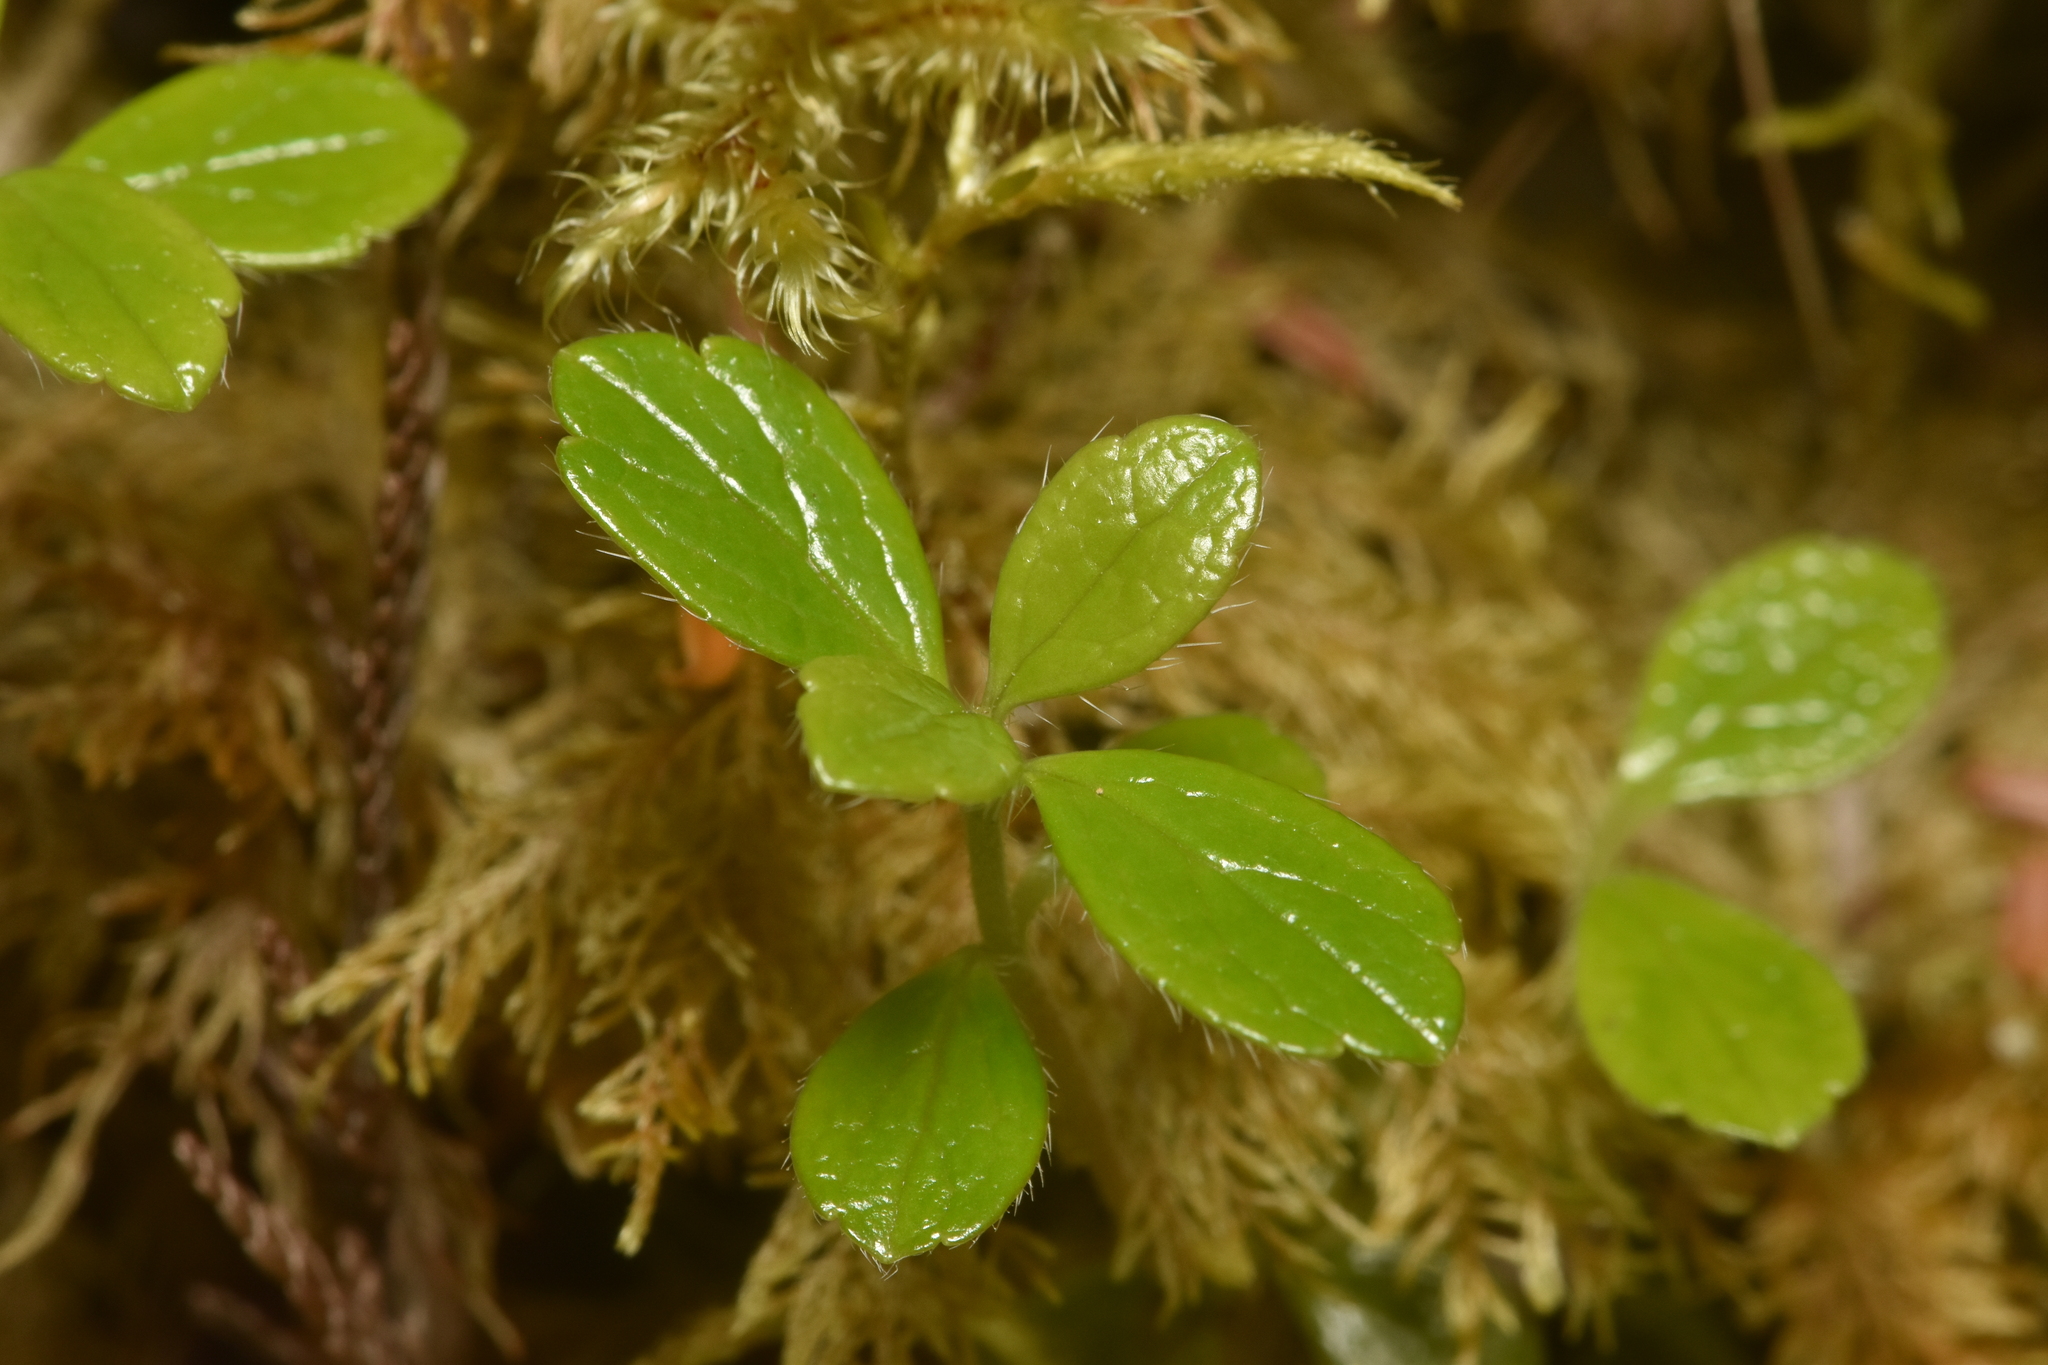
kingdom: Plantae
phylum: Tracheophyta
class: Magnoliopsida
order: Dipsacales
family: Caprifoliaceae
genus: Linnaea
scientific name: Linnaea borealis
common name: Twinflower
